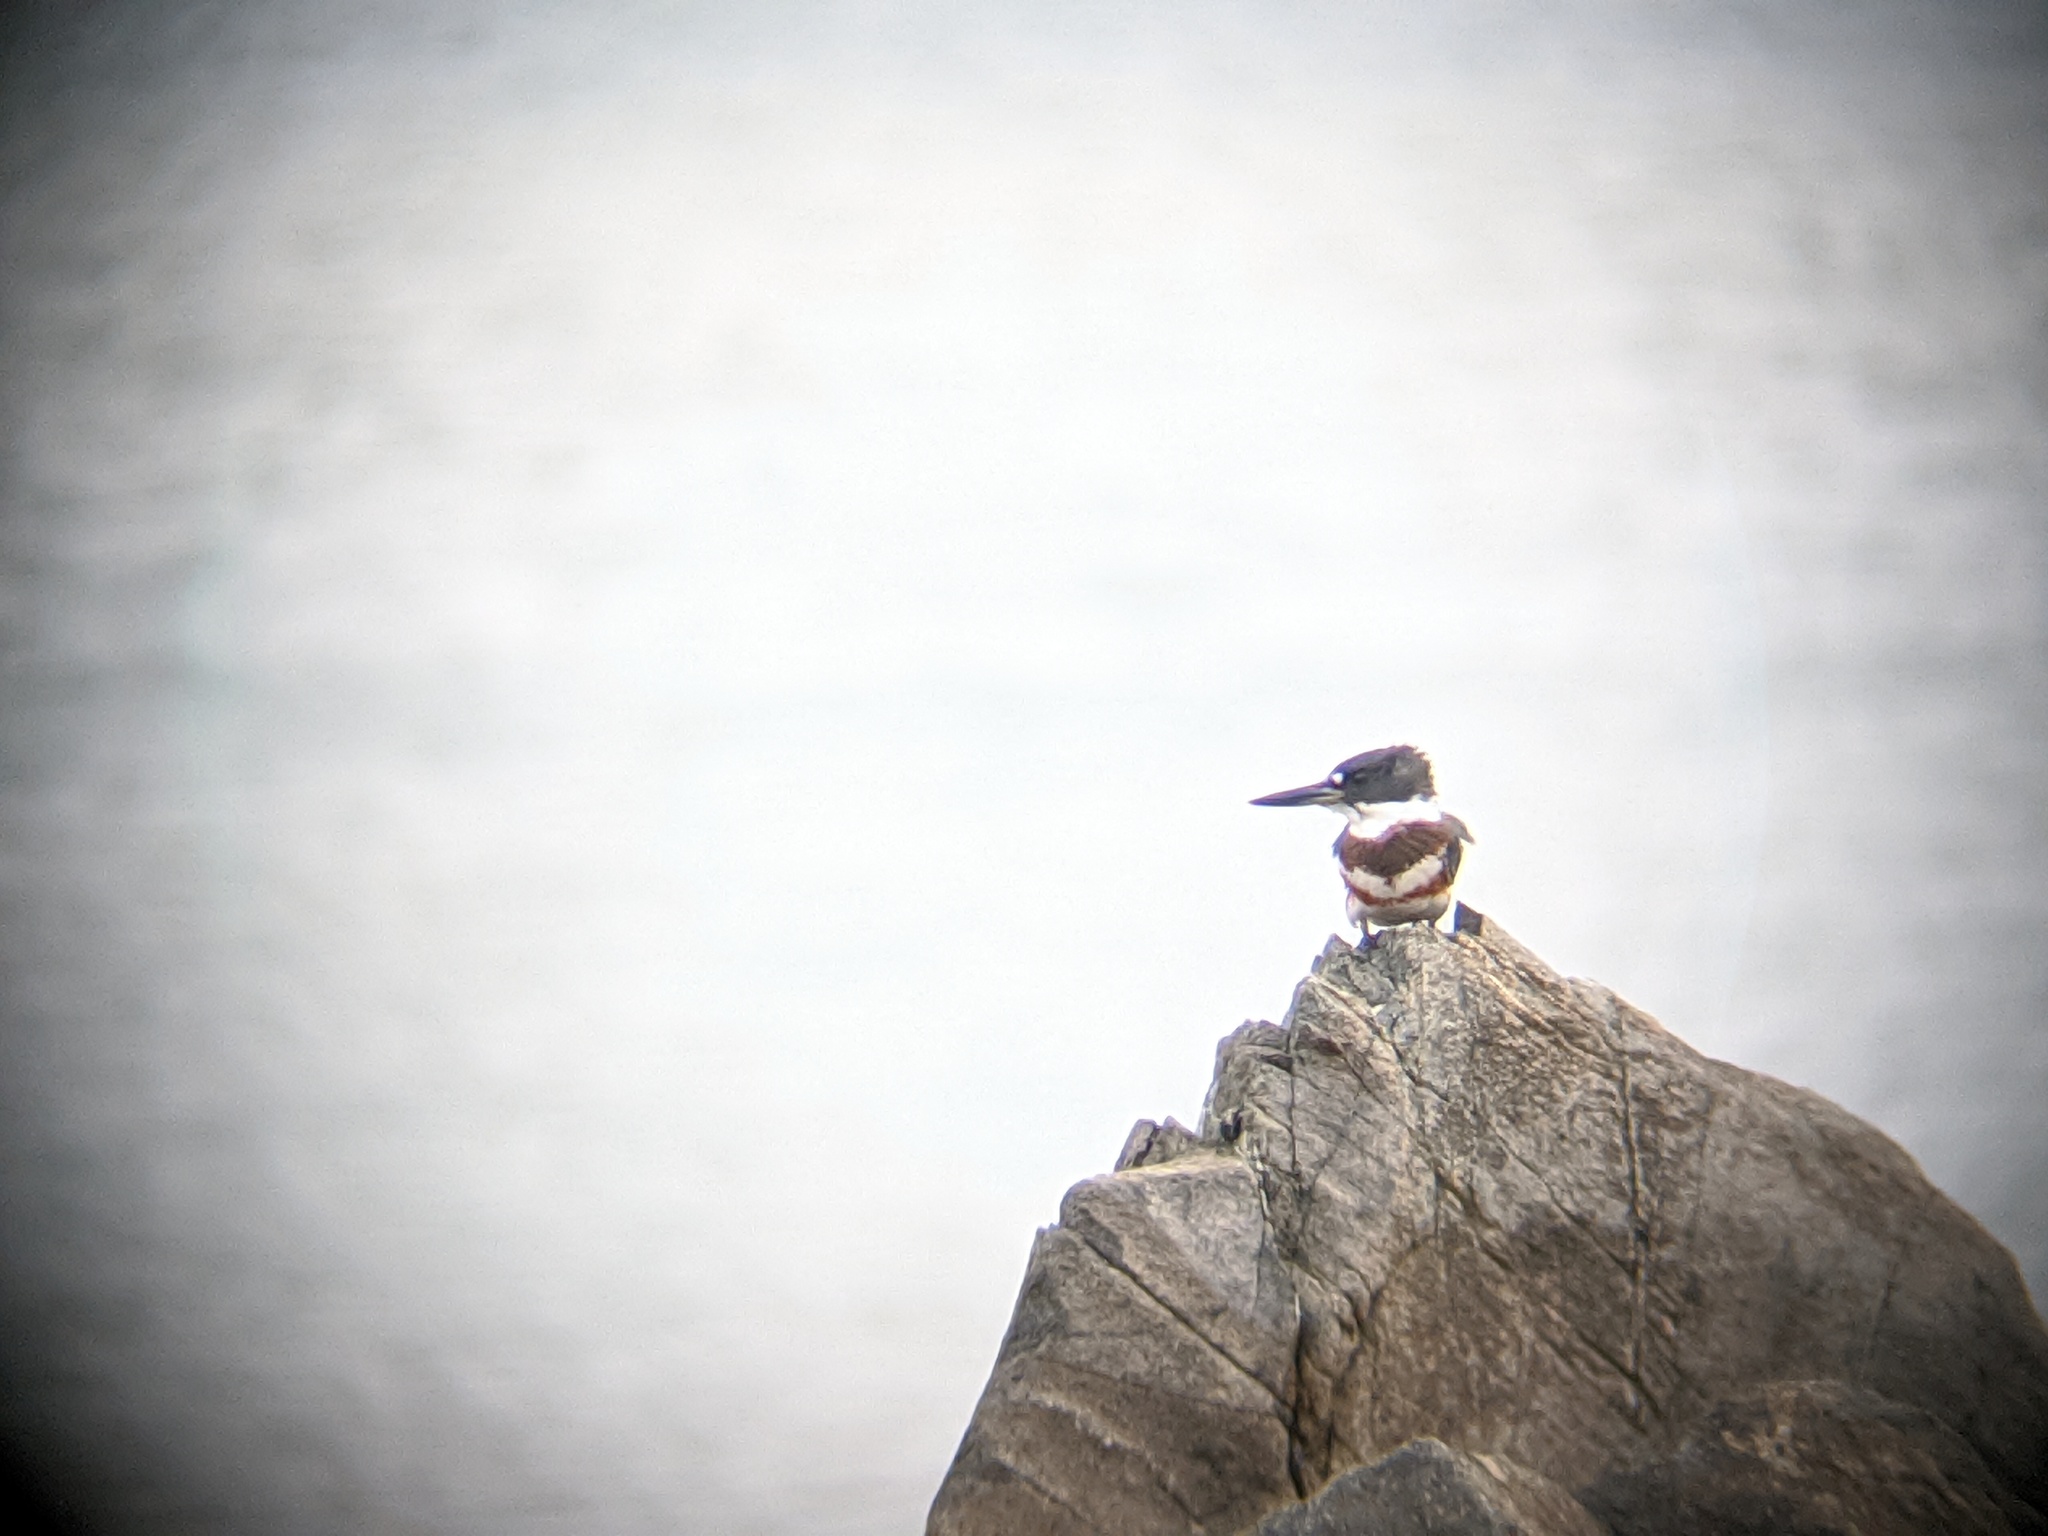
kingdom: Animalia
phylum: Chordata
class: Aves
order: Coraciiformes
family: Alcedinidae
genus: Megaceryle
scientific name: Megaceryle alcyon
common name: Belted kingfisher
